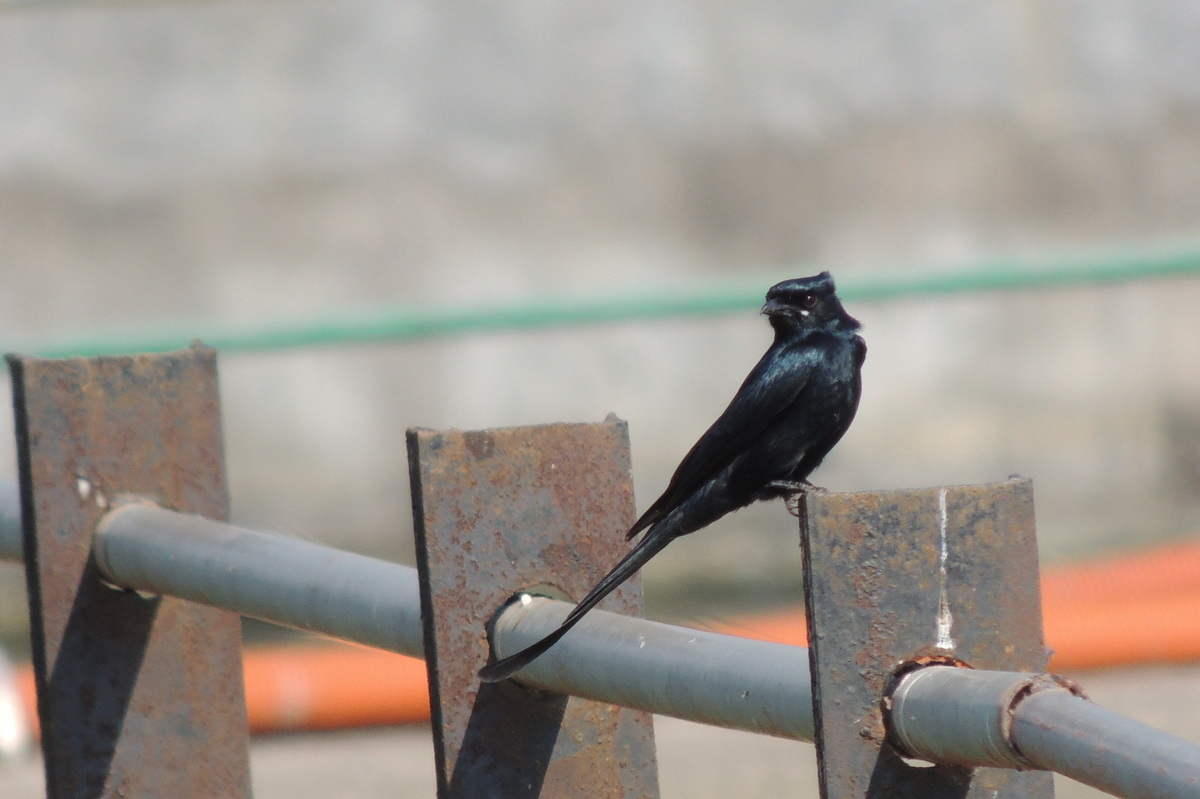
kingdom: Animalia
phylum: Chordata
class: Aves
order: Passeriformes
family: Dicruridae
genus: Dicrurus
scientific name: Dicrurus macrocercus
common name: Black drongo
